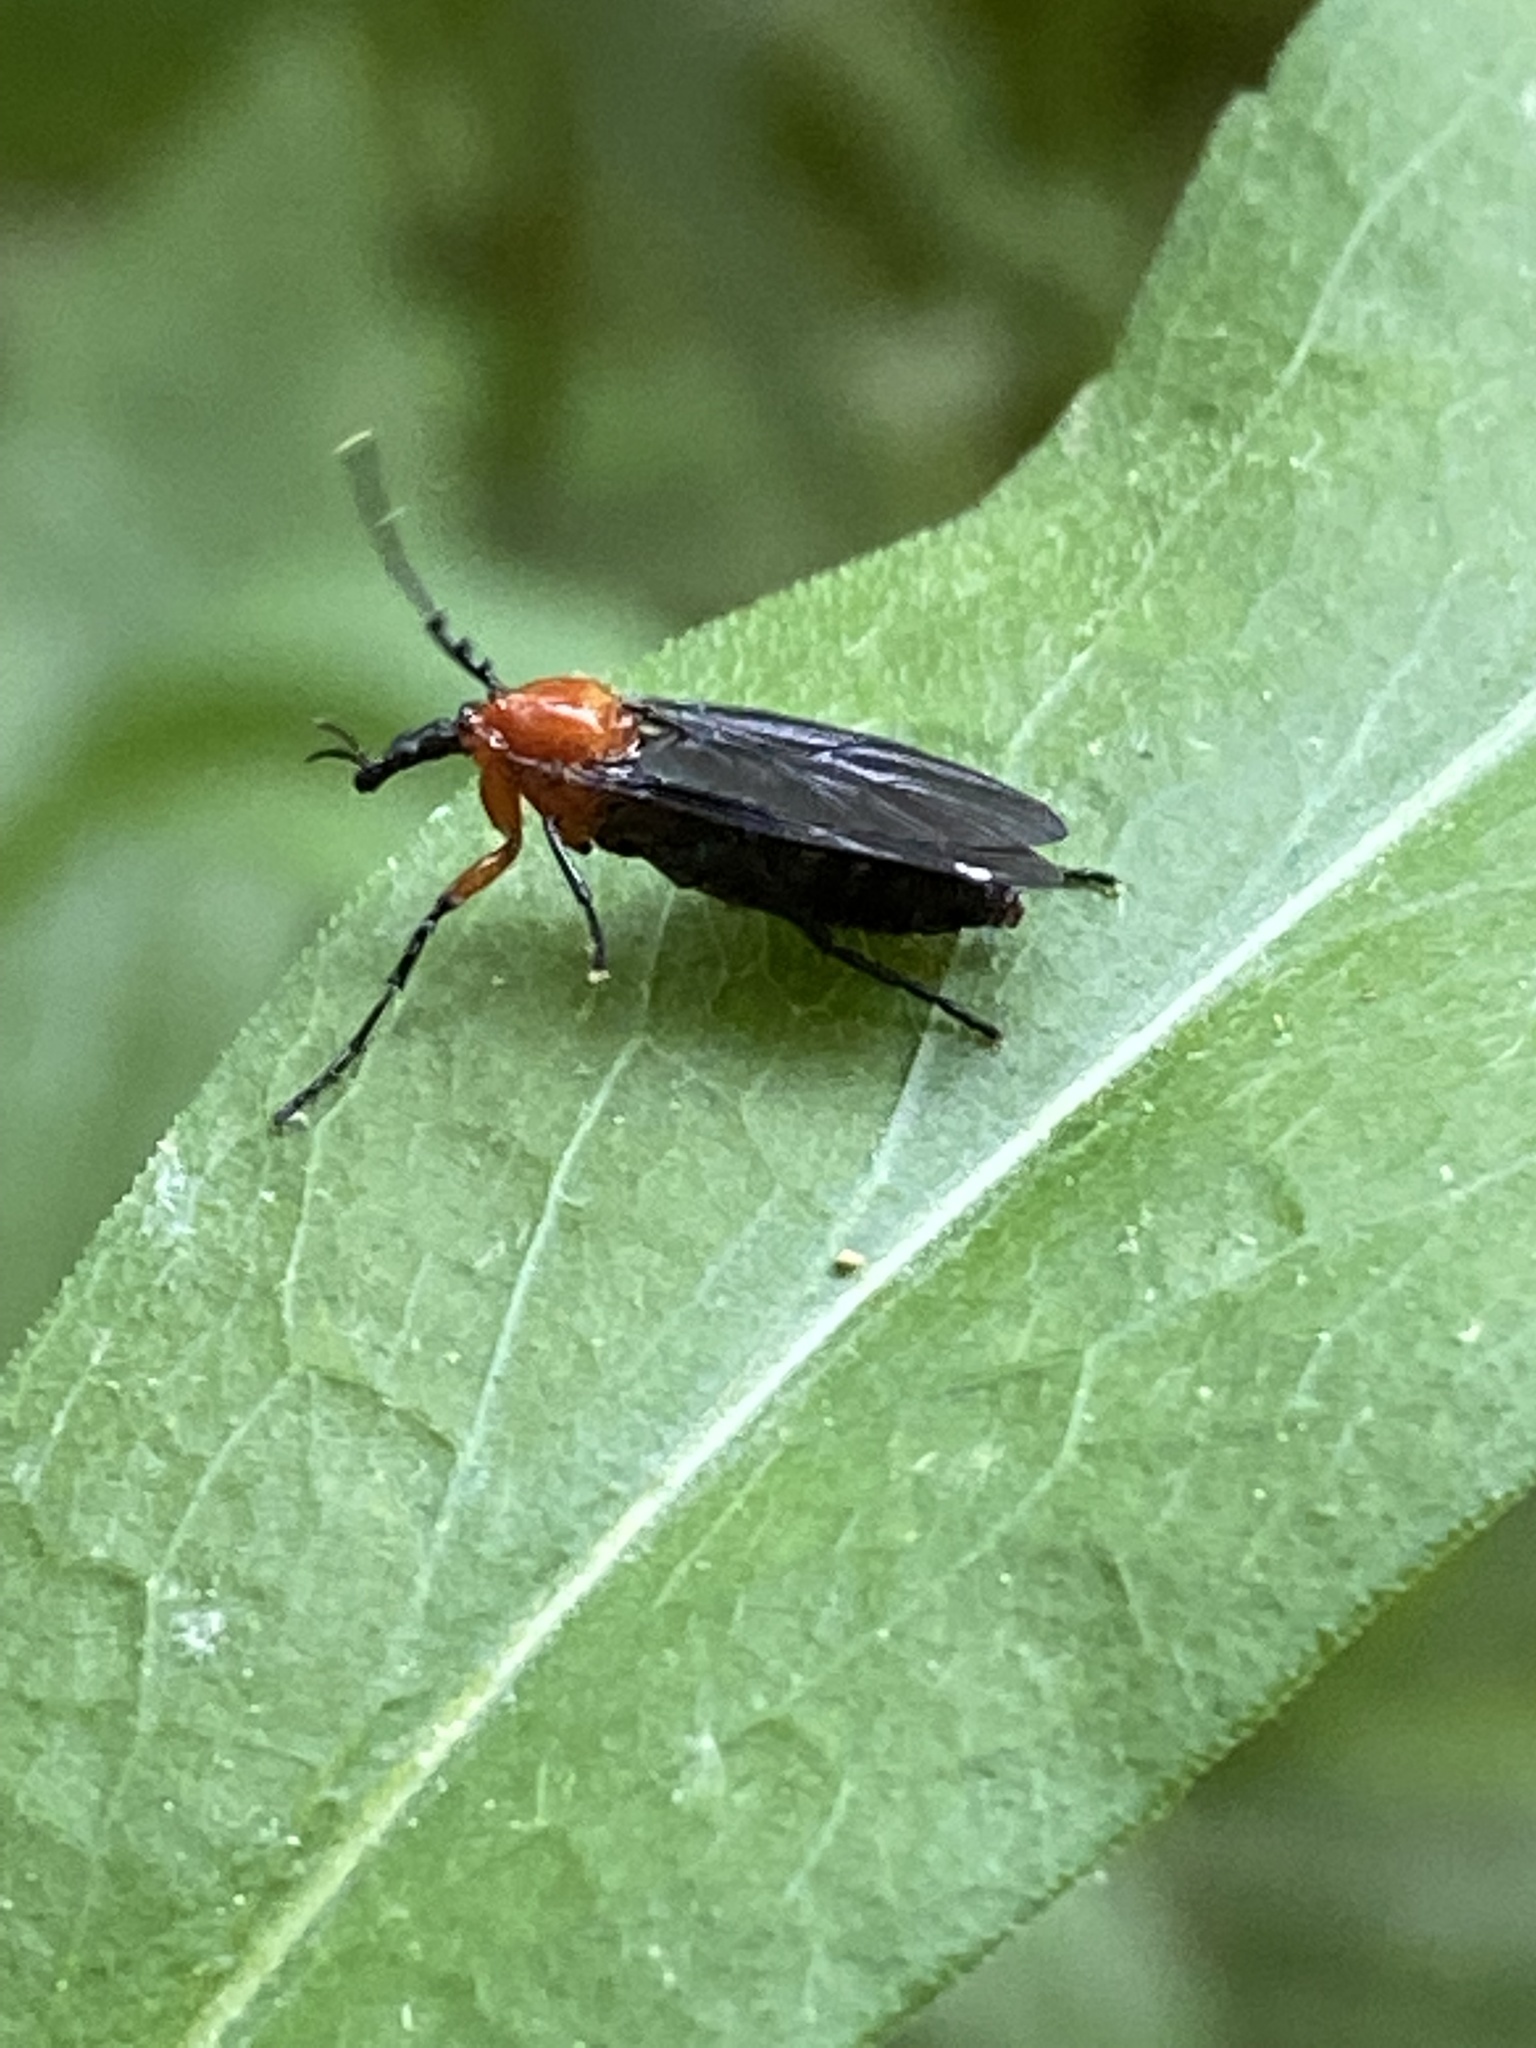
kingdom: Animalia
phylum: Arthropoda
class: Insecta
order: Diptera
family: Bibionidae
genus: Dilophus
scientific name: Dilophus spinipes
